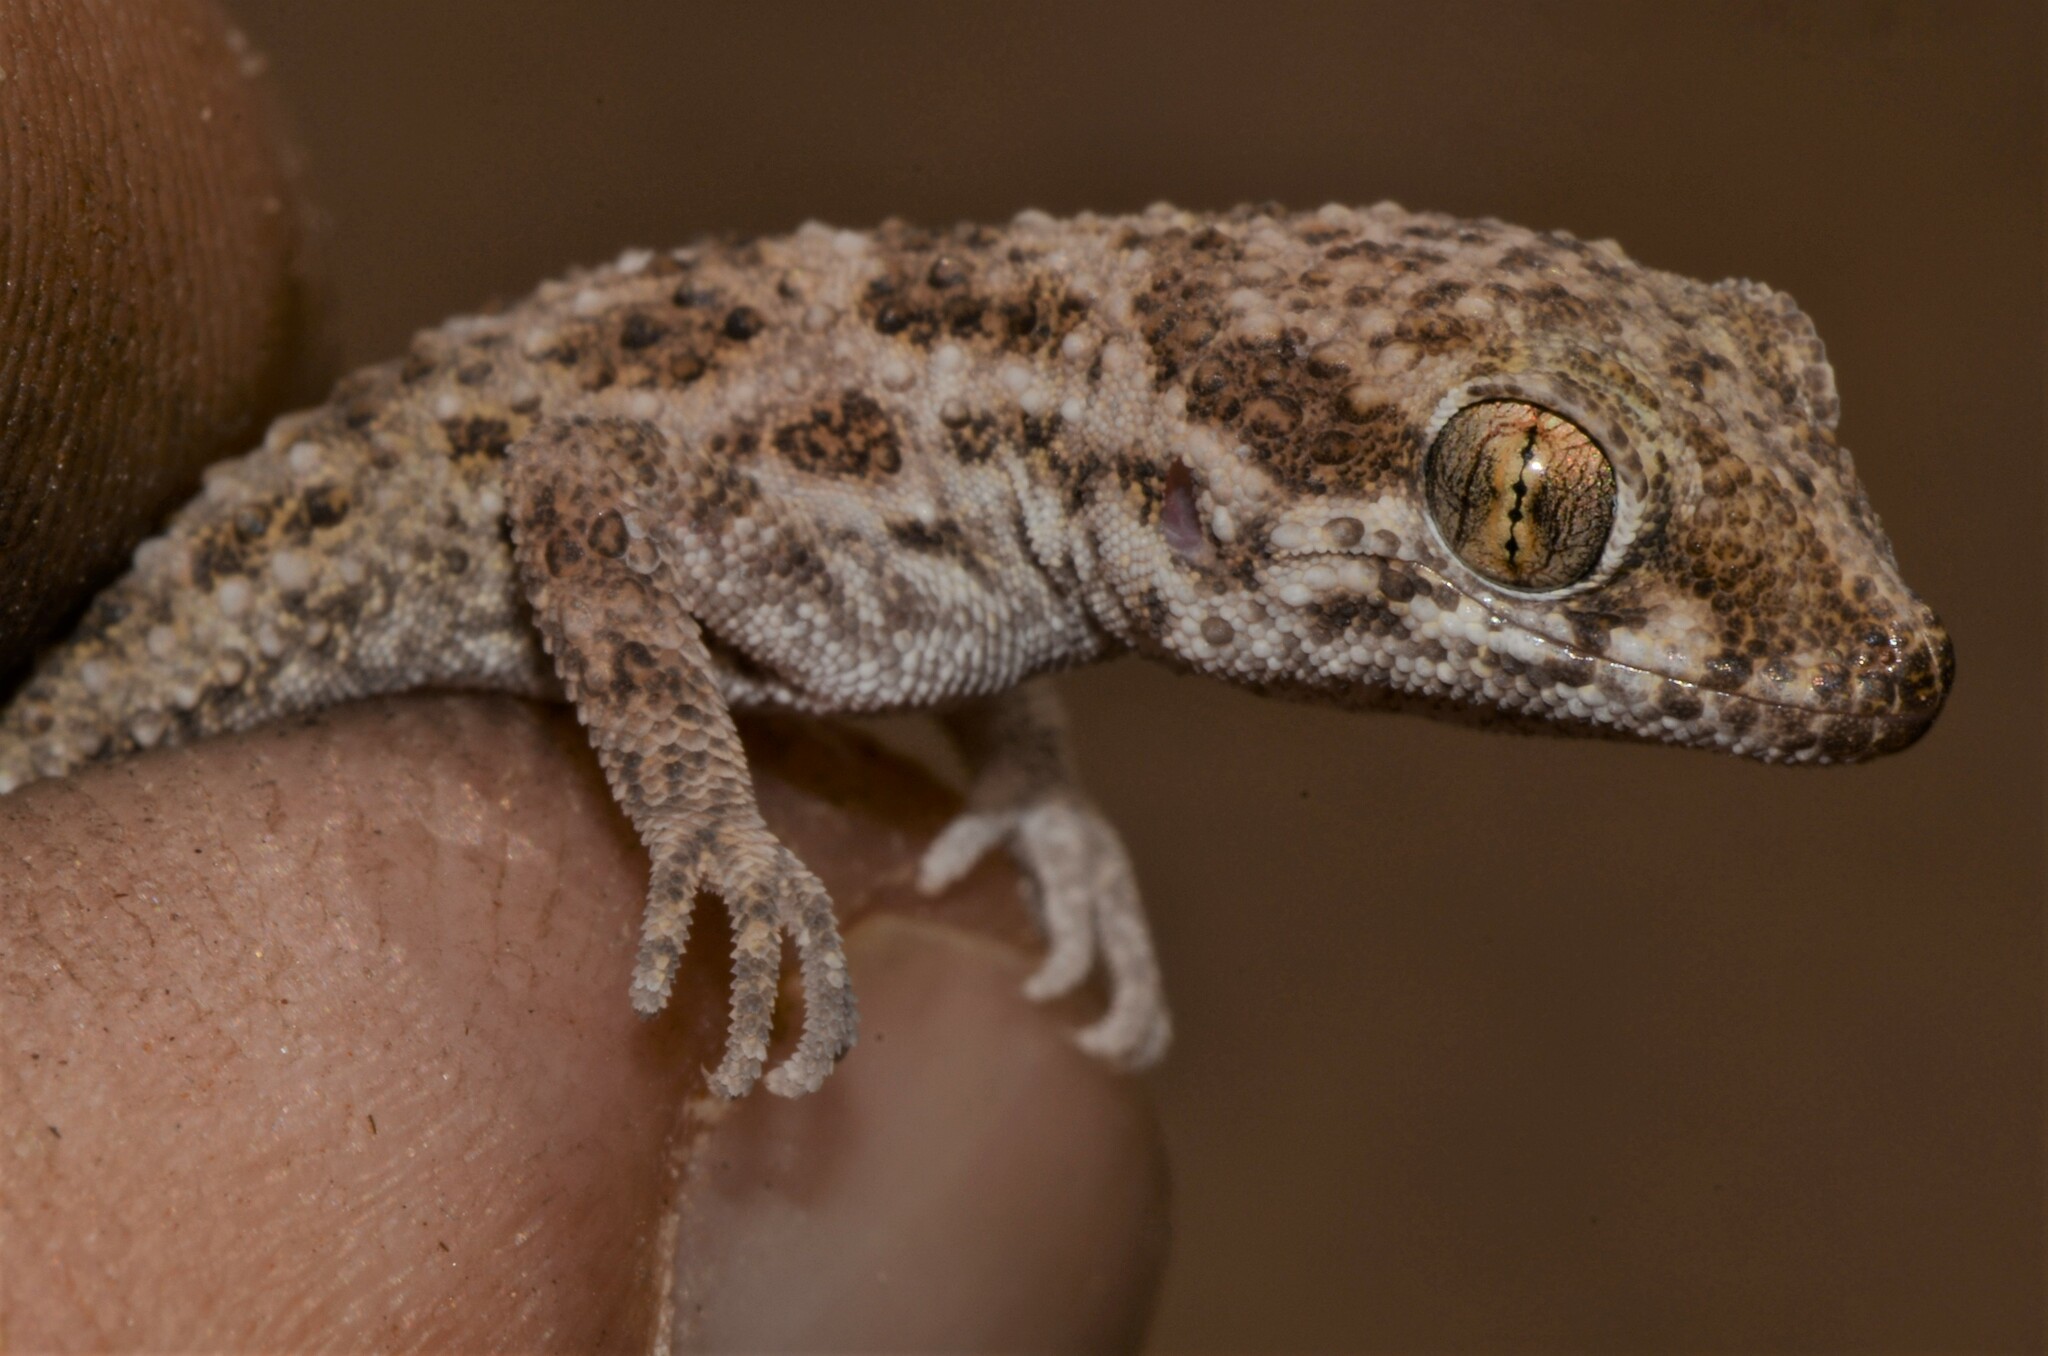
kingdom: Animalia
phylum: Chordata
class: Squamata
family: Gekkonidae
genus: Bunopus
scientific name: Bunopus tuberculatus
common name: Southern tuberculated gecko
